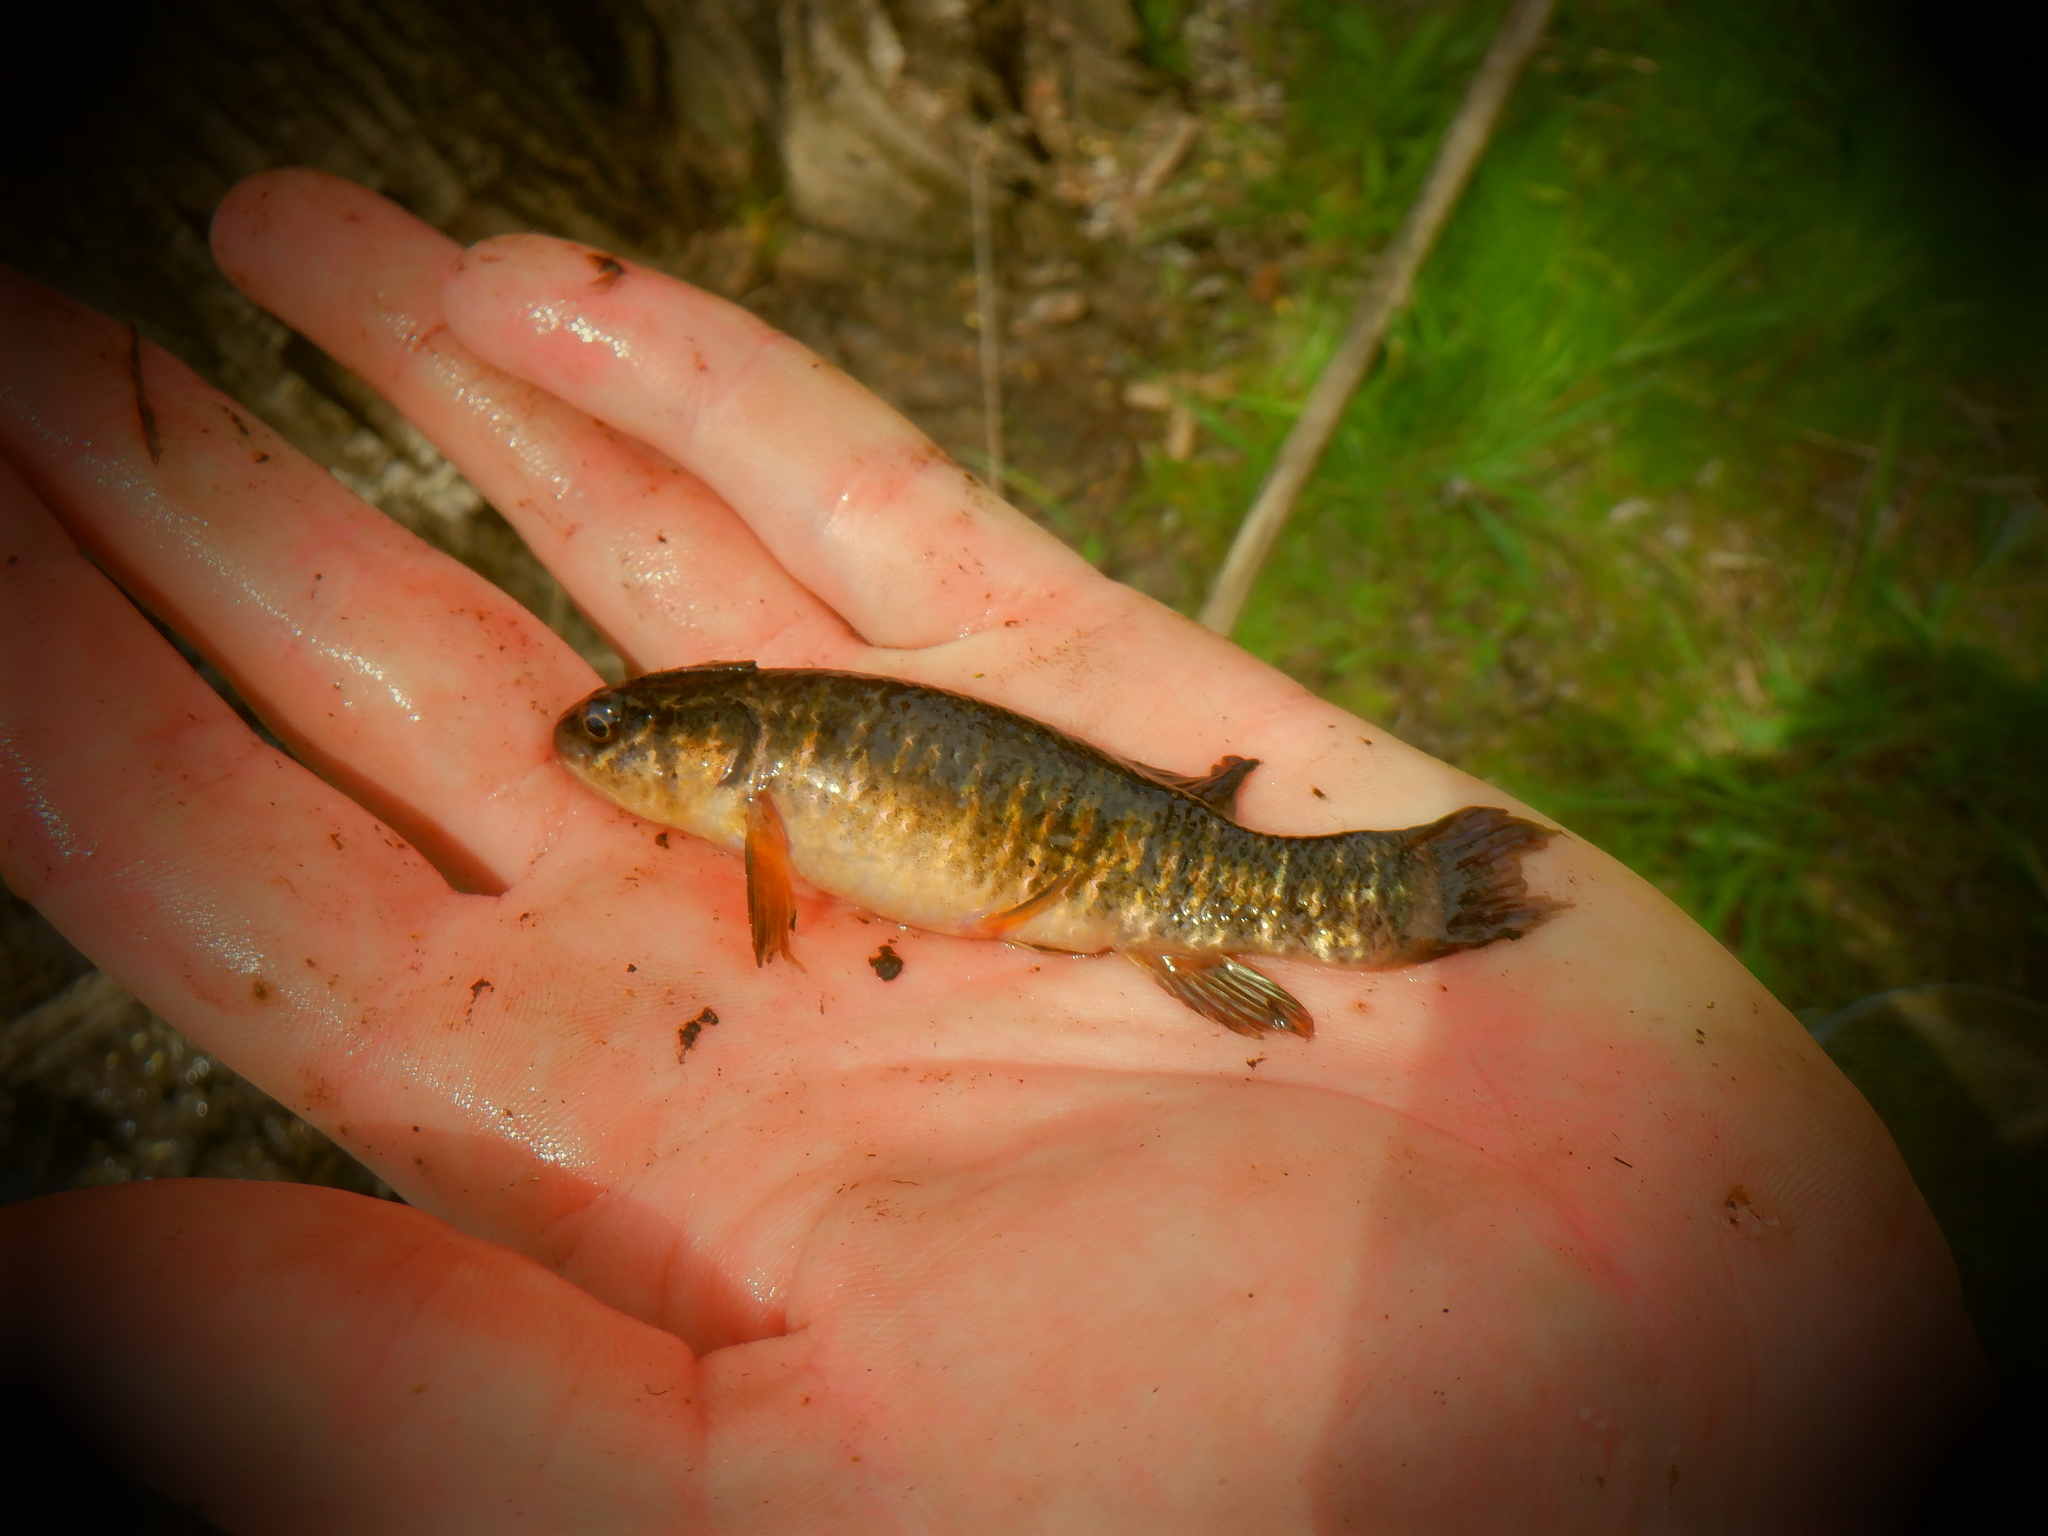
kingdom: Animalia
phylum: Chordata
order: Esociformes
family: Umbridae
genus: Umbra
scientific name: Umbra limi
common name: Central mudminnow
